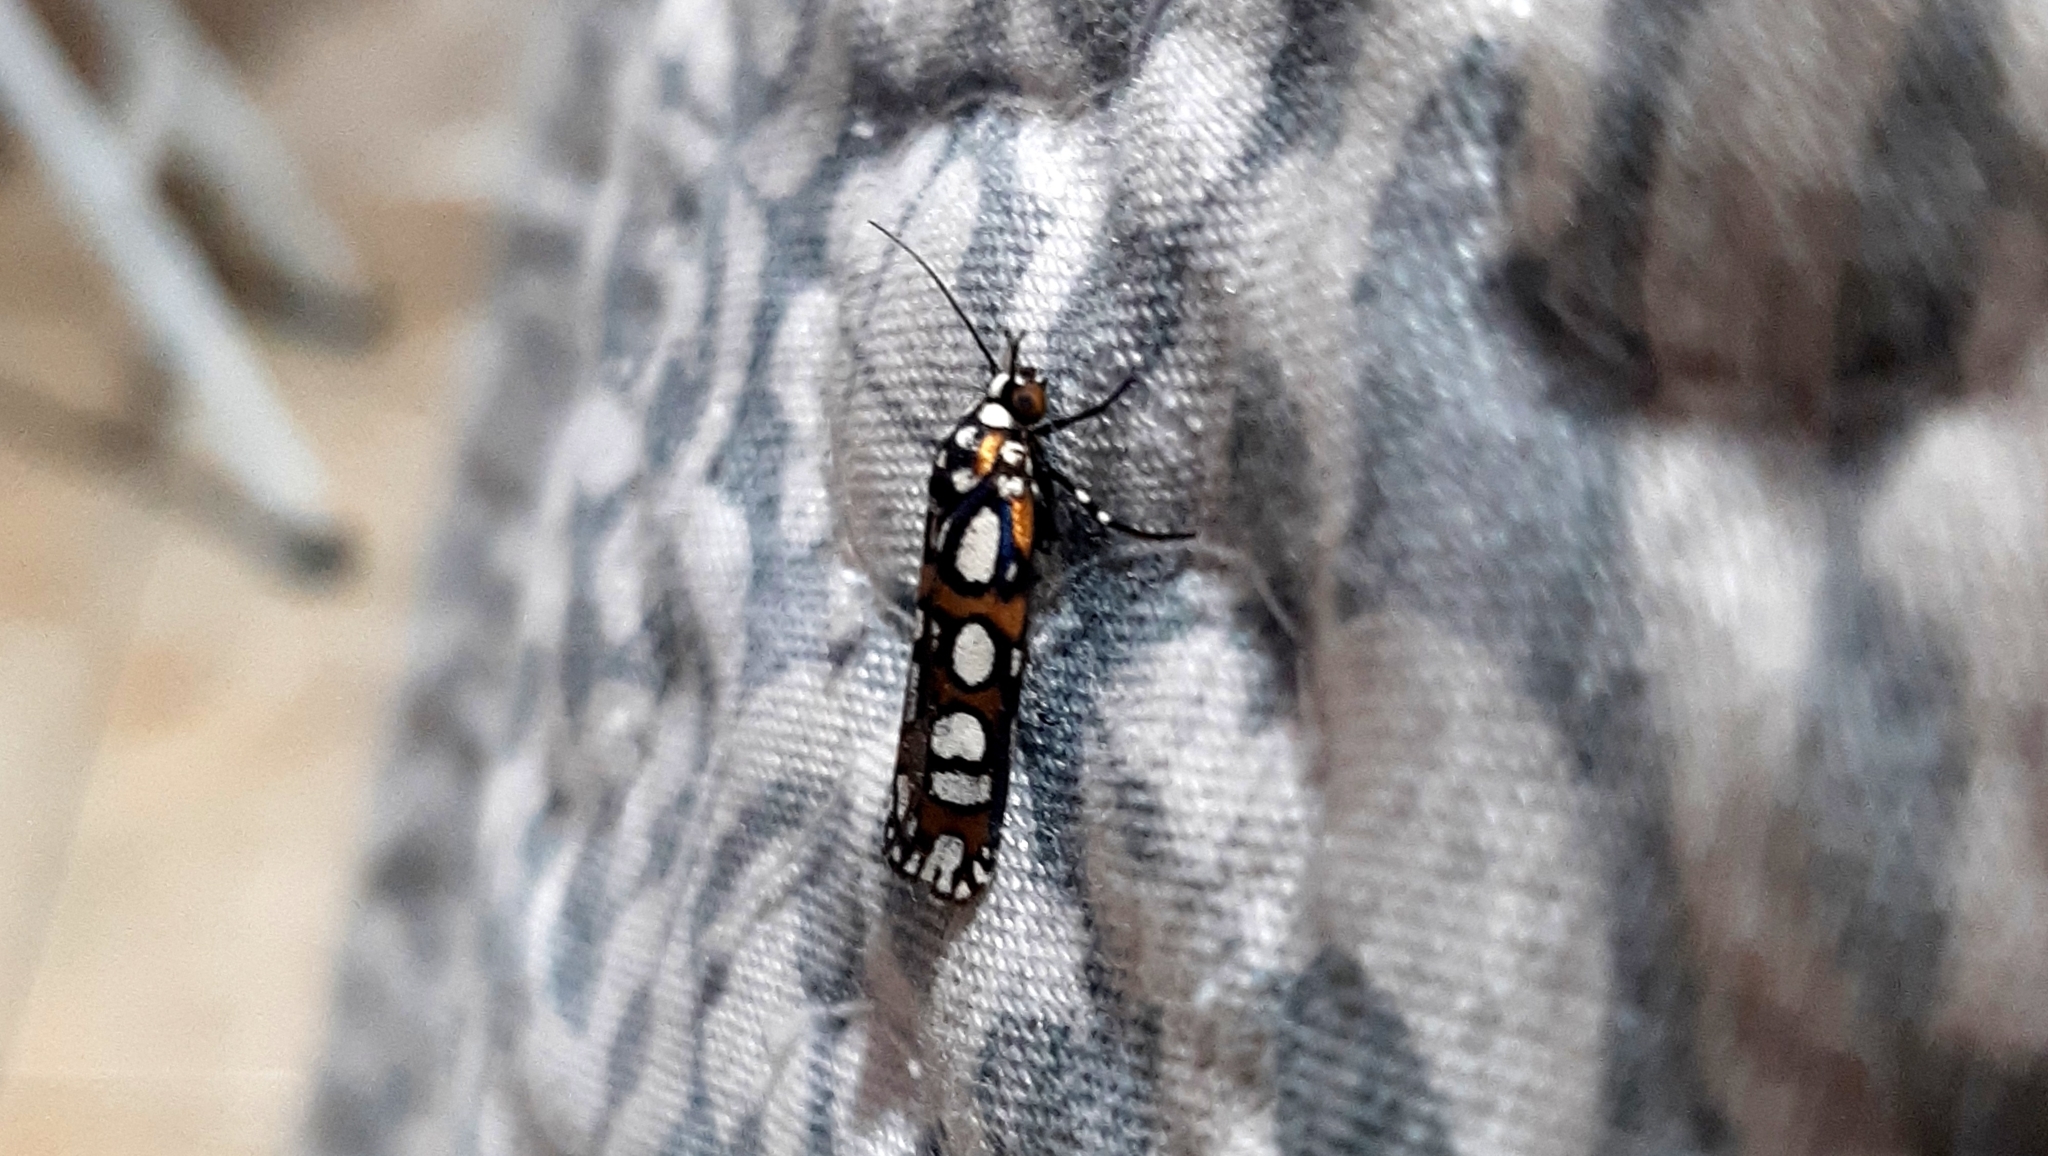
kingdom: Animalia
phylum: Arthropoda
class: Insecta
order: Lepidoptera
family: Noctuidae
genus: Cydosia
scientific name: Cydosia rimata
